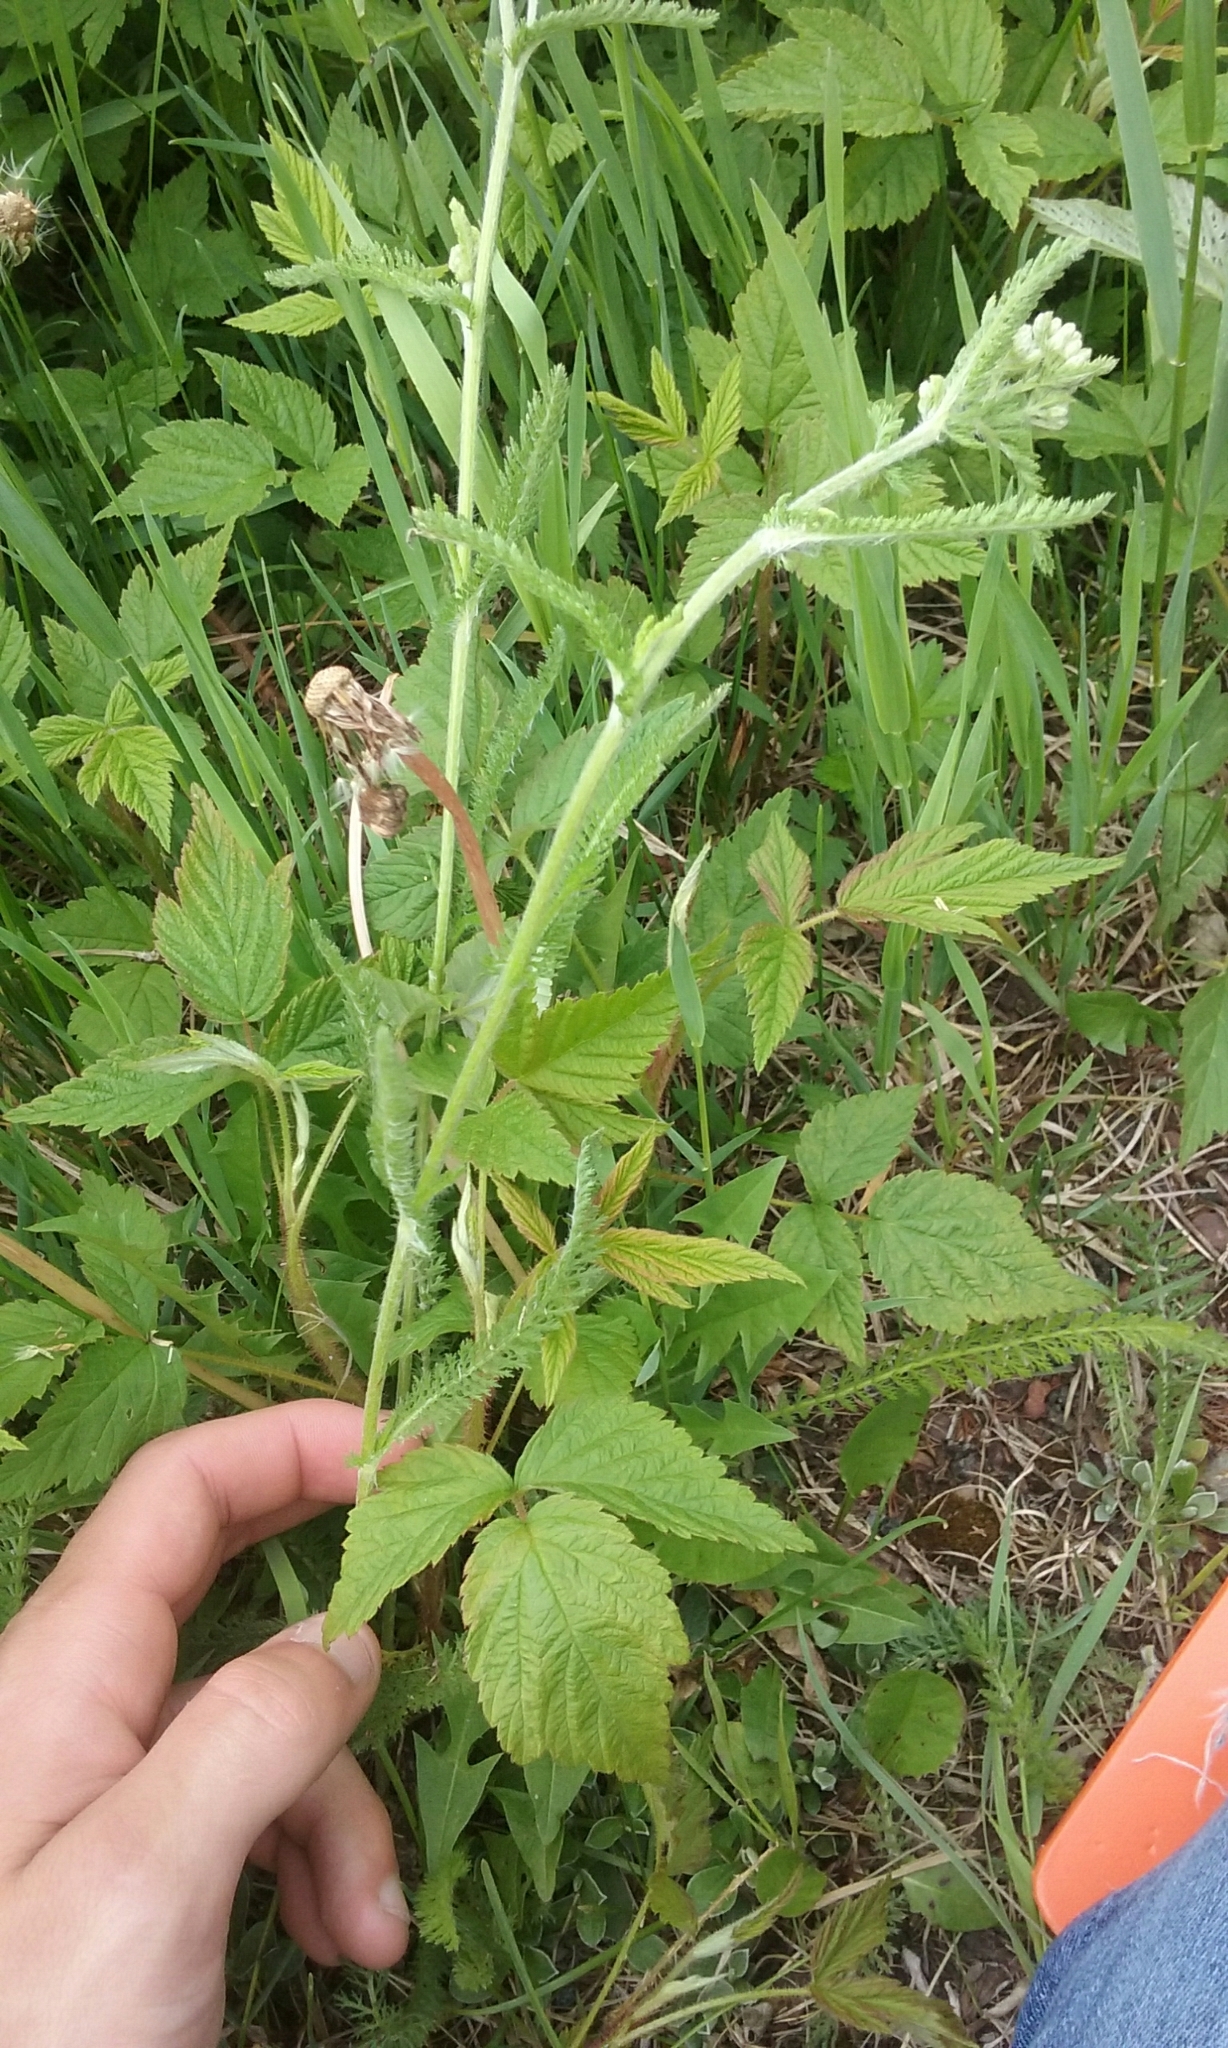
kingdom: Plantae
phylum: Tracheophyta
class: Magnoliopsida
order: Asterales
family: Asteraceae
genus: Achillea
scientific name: Achillea millefolium
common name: Yarrow
